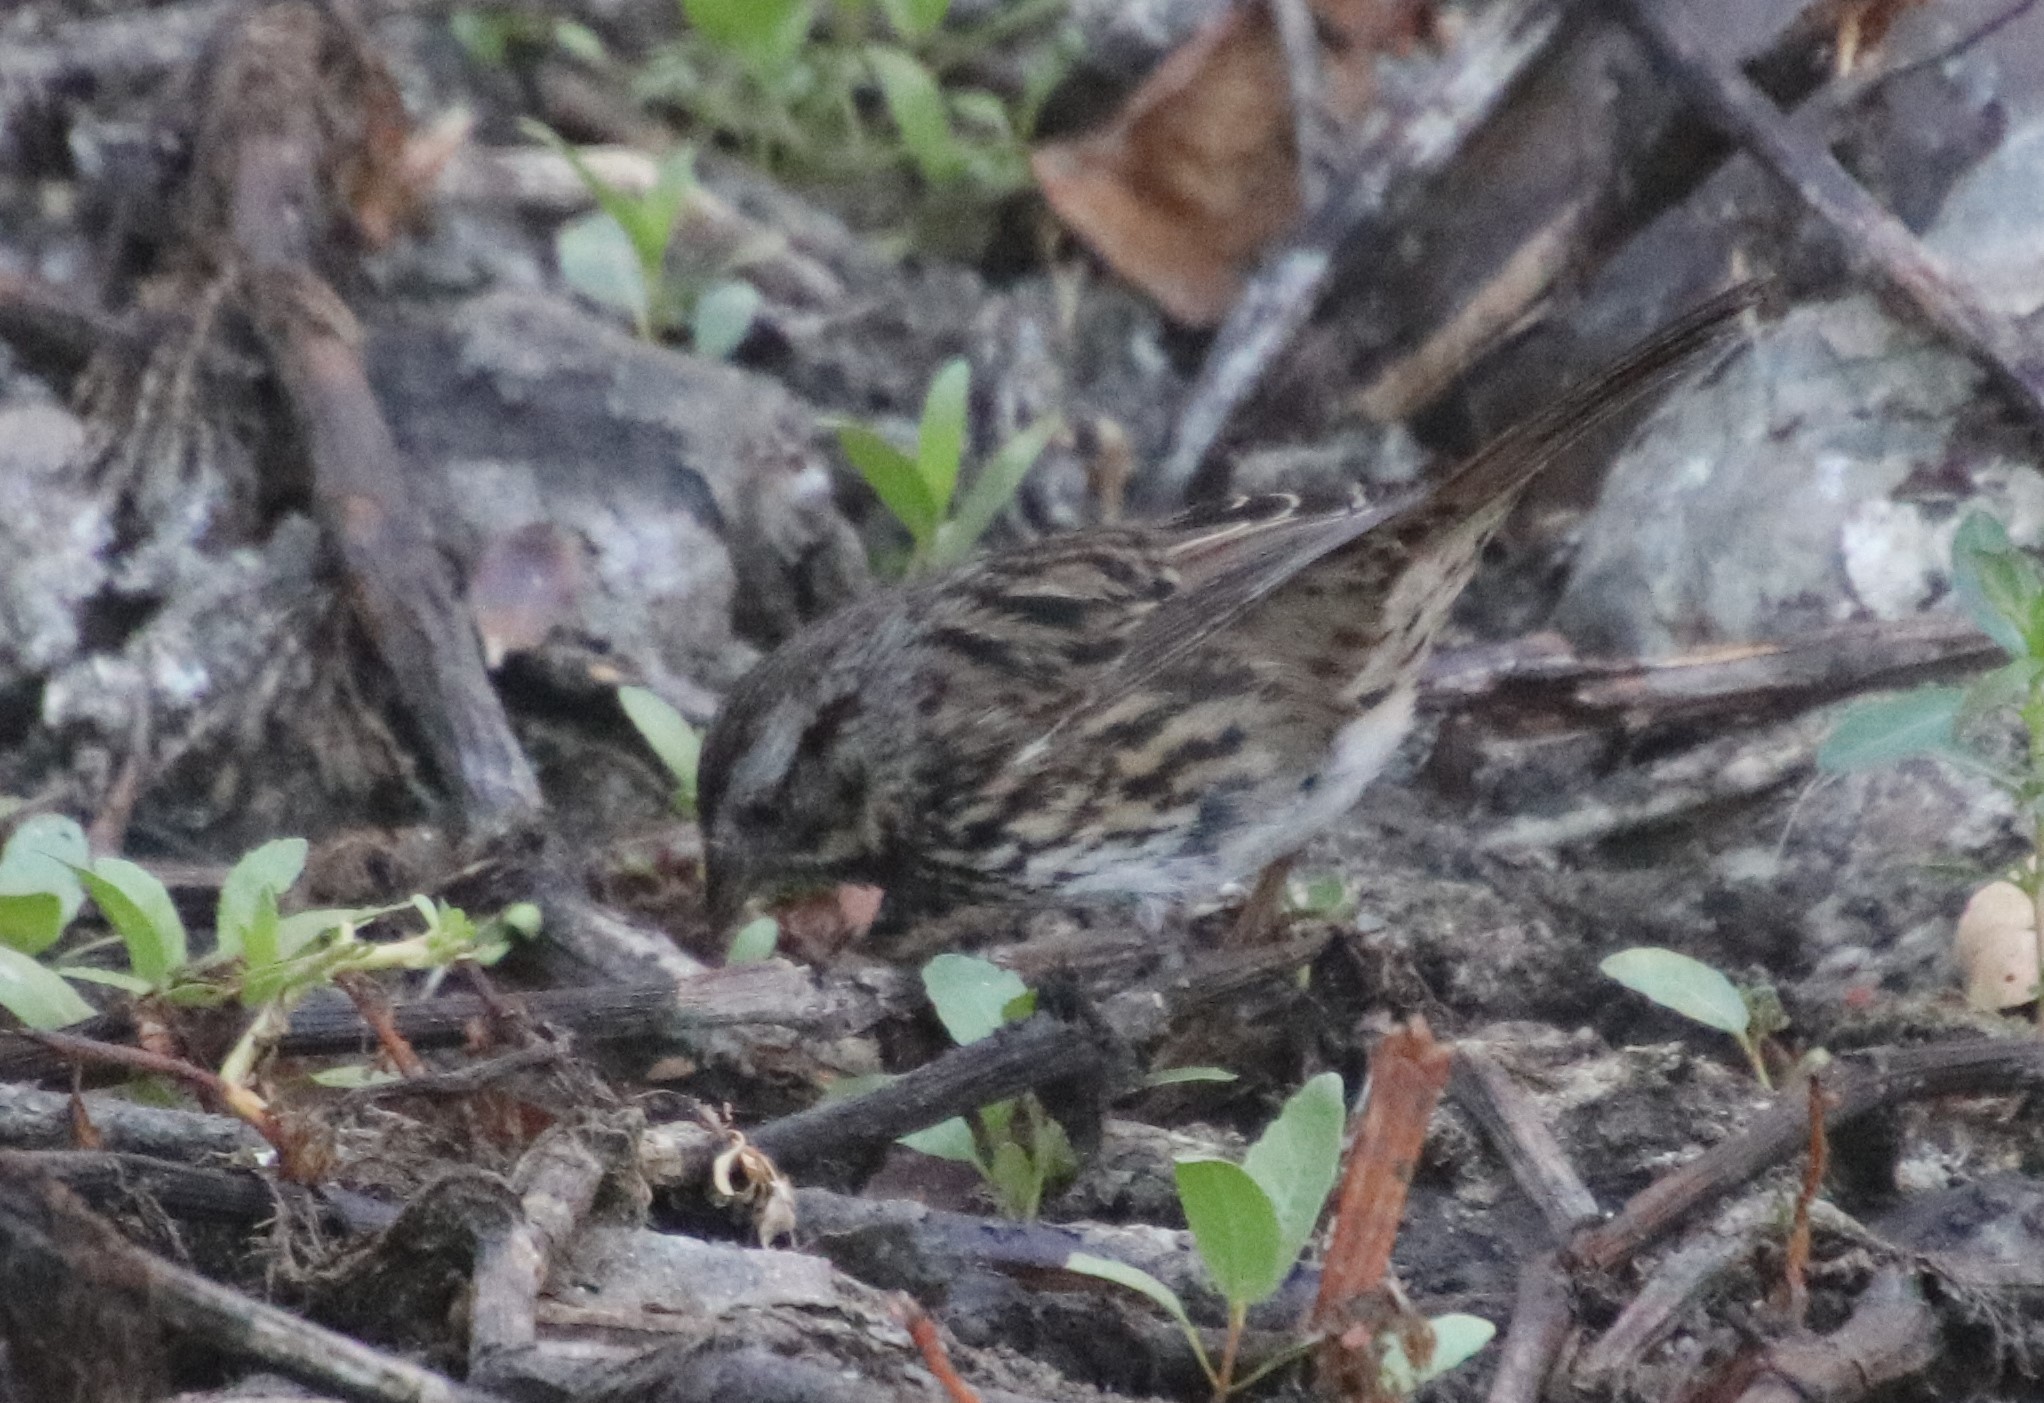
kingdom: Animalia
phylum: Chordata
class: Aves
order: Passeriformes
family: Passerellidae
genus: Melospiza
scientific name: Melospiza melodia
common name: Song sparrow
